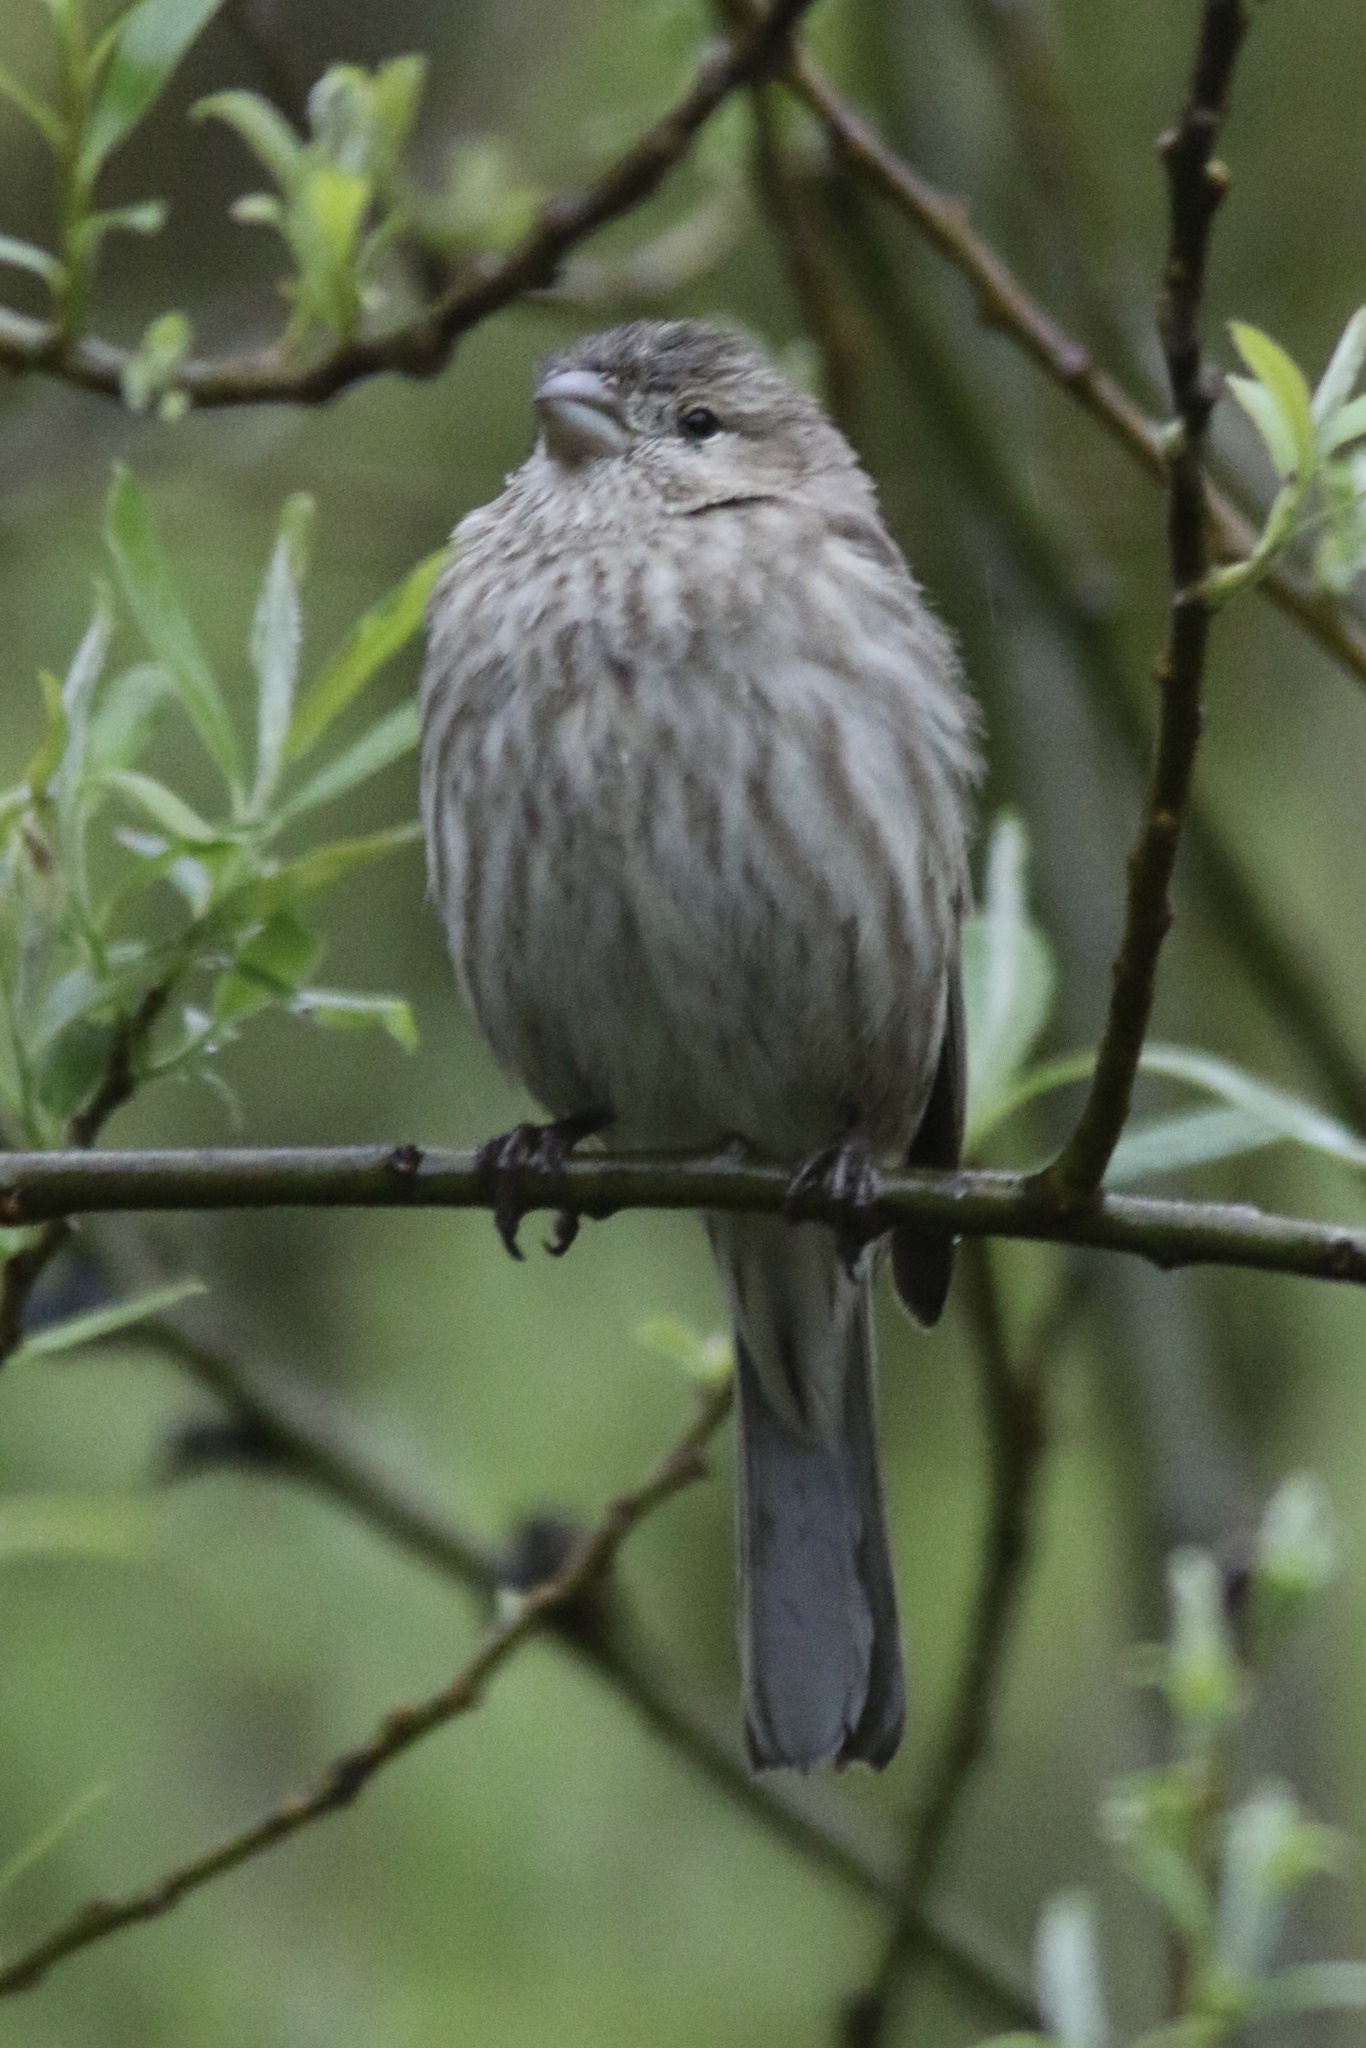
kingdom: Animalia
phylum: Chordata
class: Aves
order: Passeriformes
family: Fringillidae
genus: Haemorhous
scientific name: Haemorhous mexicanus
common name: House finch
